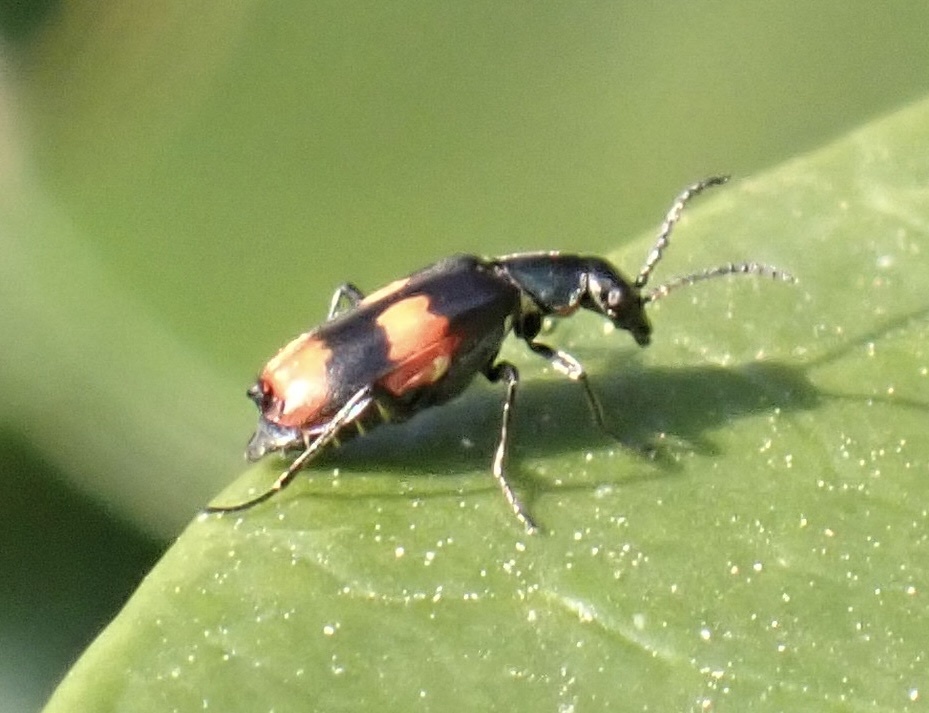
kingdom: Animalia
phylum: Arthropoda
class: Insecta
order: Coleoptera
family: Melyridae
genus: Anthocomus
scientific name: Anthocomus fasciatus
